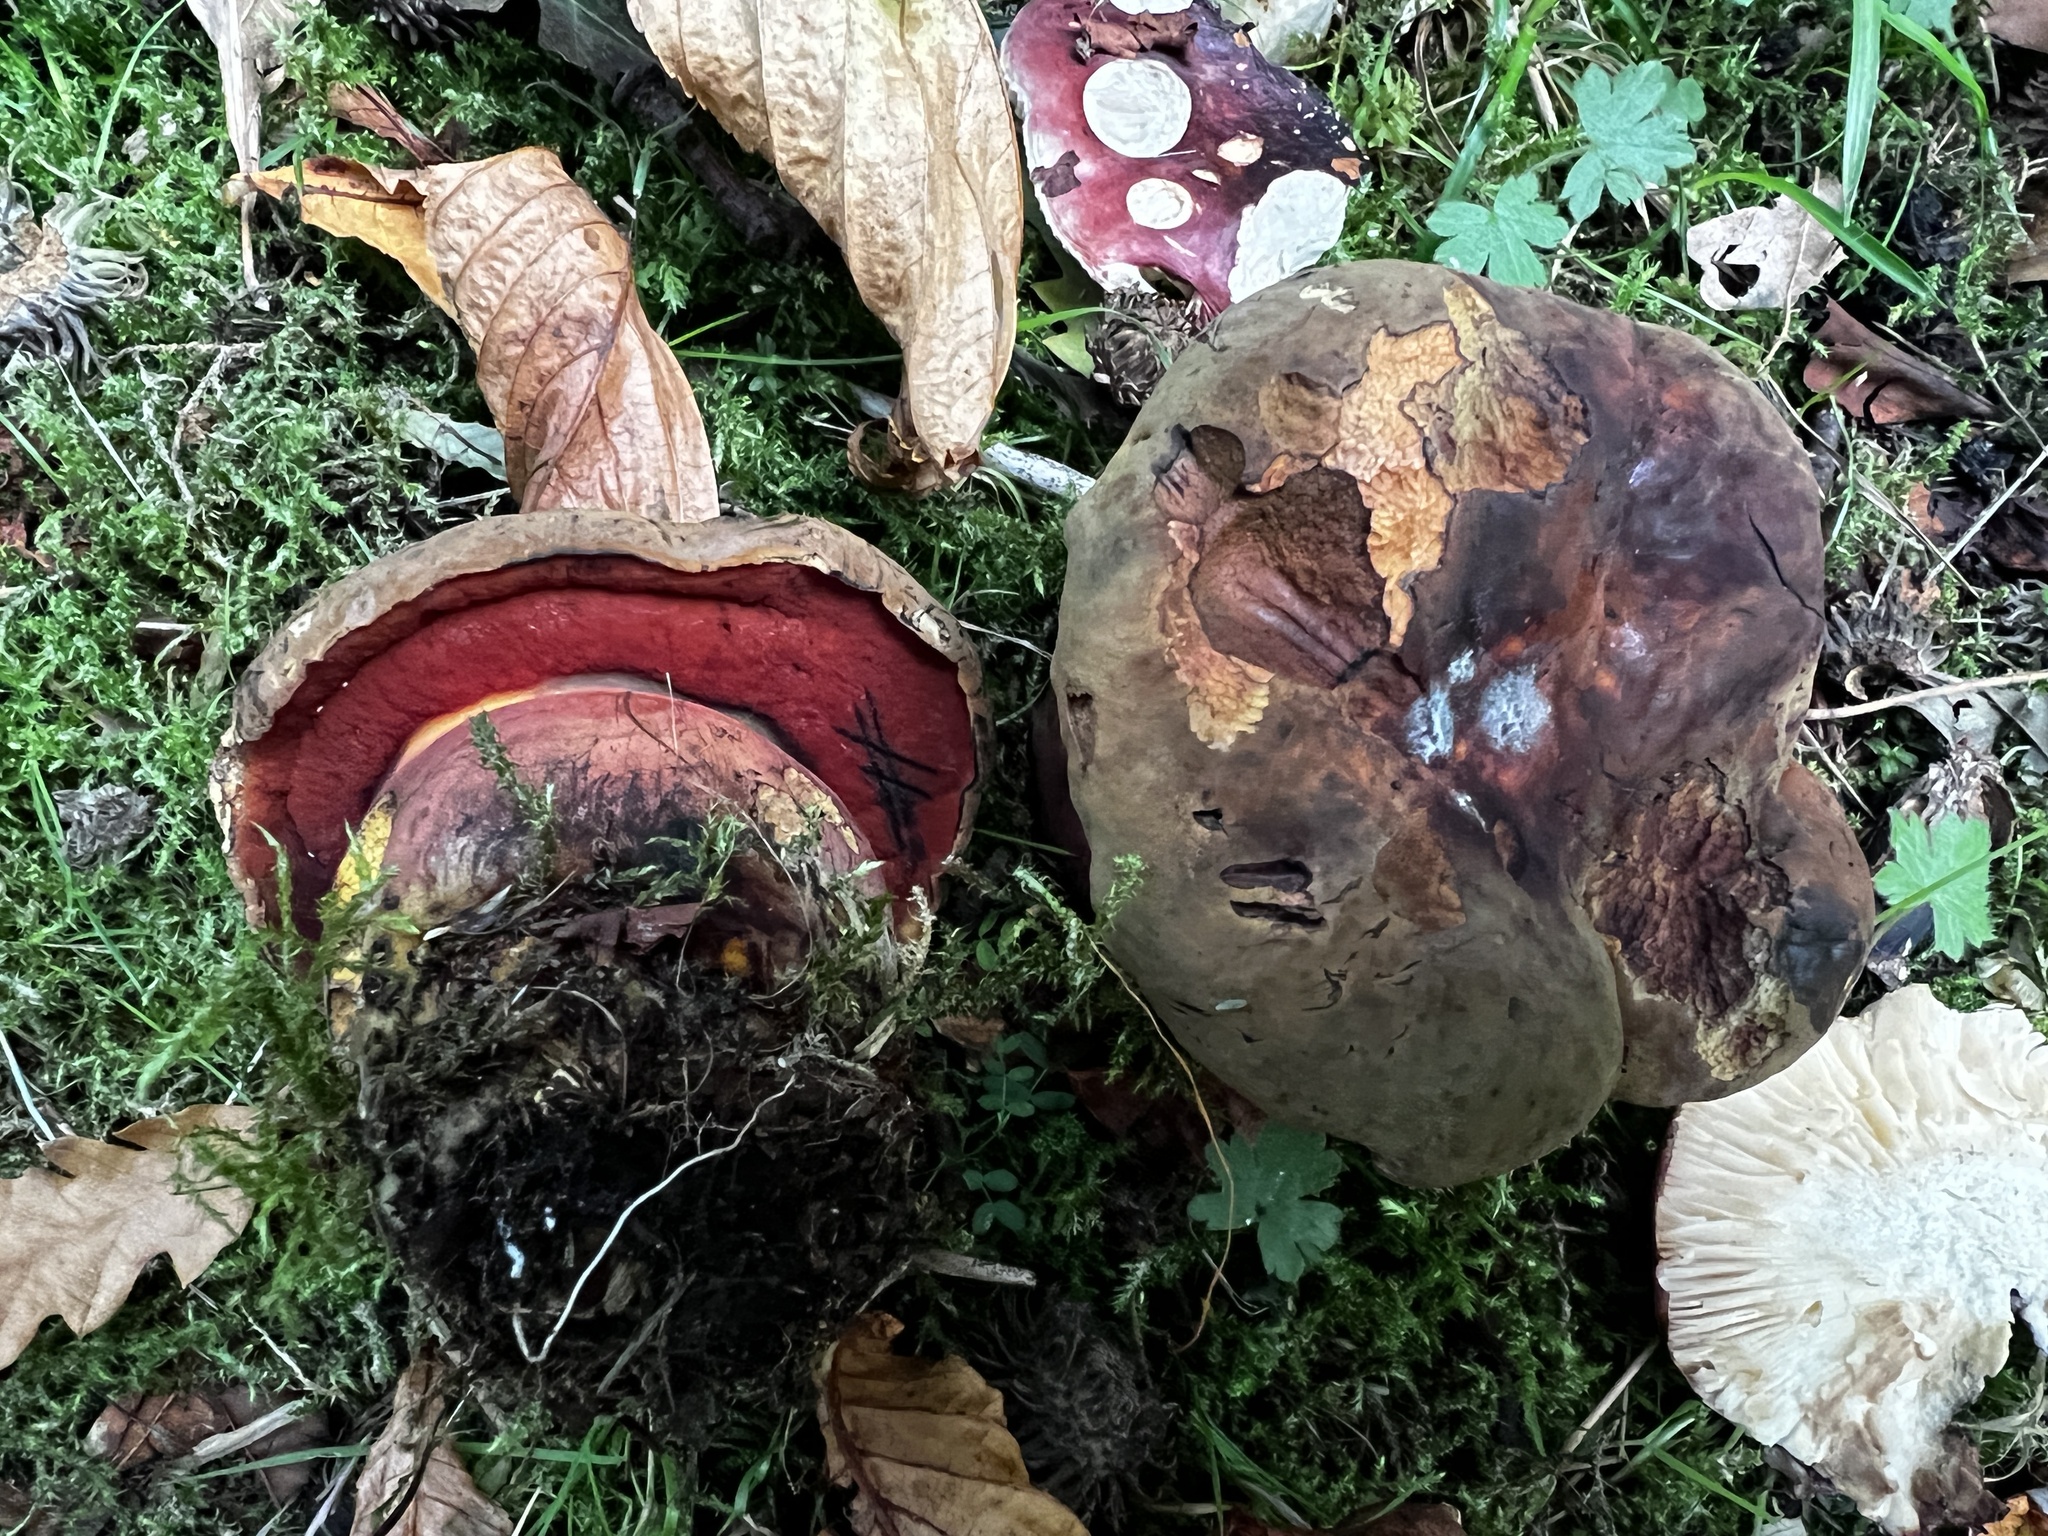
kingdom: Fungi
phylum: Basidiomycota
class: Agaricomycetes
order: Boletales
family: Boletaceae
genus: Neoboletus
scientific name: Neoboletus erythropus
